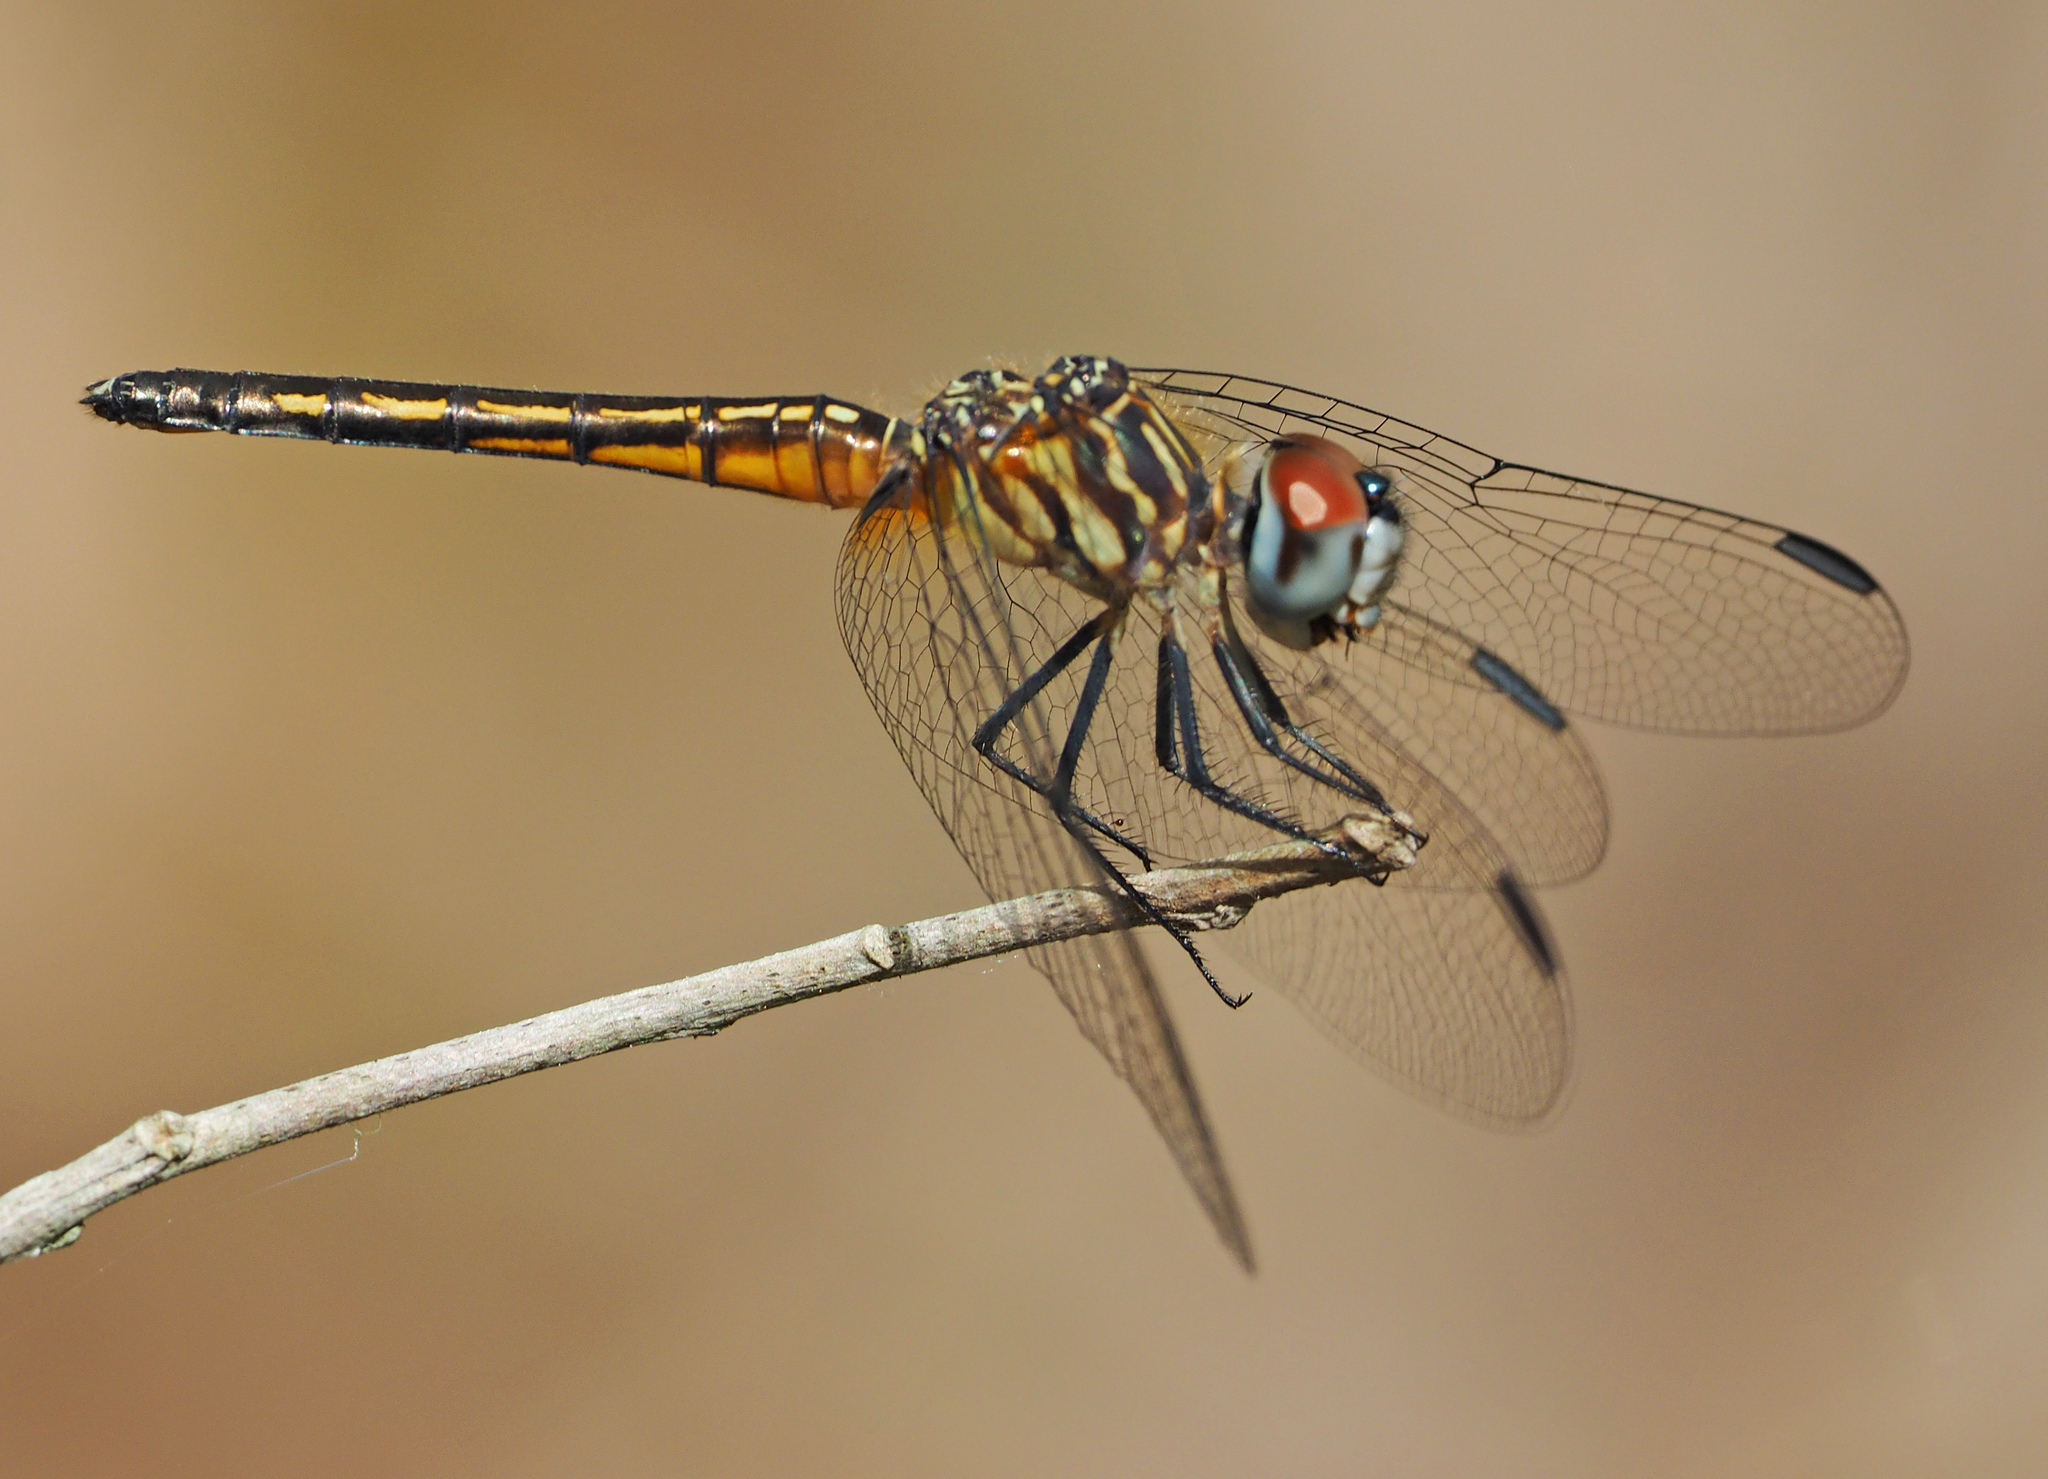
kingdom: Animalia
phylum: Arthropoda
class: Insecta
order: Odonata
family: Libellulidae
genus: Pachydiplax
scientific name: Pachydiplax longipennis
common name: Blue dasher
